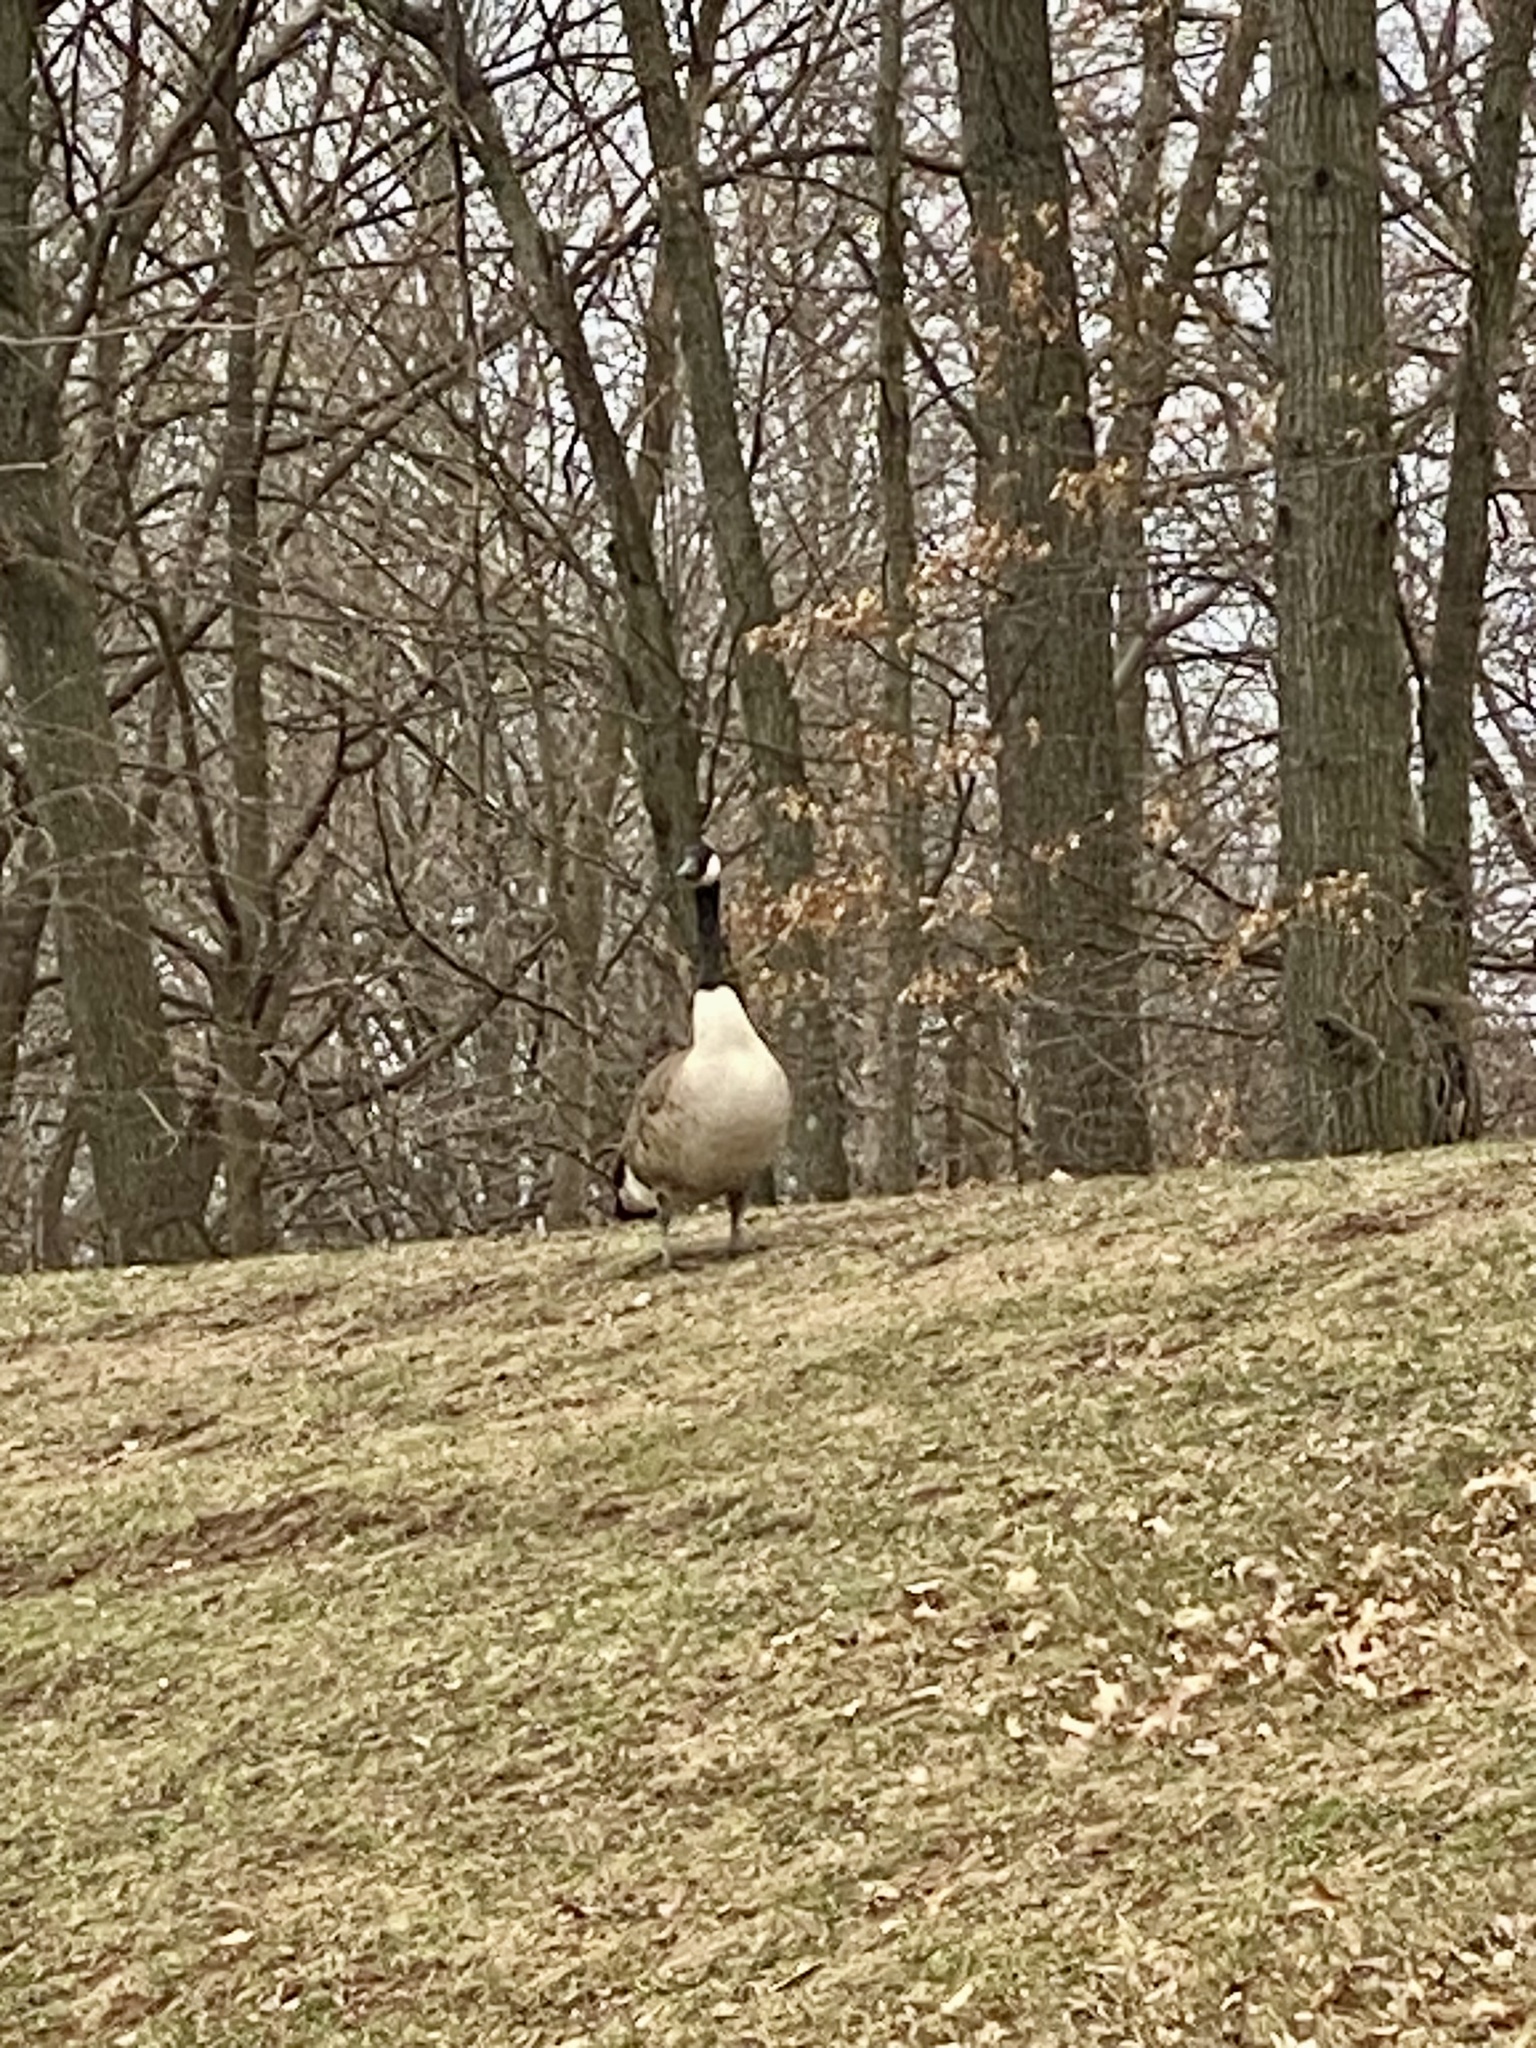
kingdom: Animalia
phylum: Chordata
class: Aves
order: Anseriformes
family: Anatidae
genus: Branta
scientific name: Branta canadensis
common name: Canada goose
